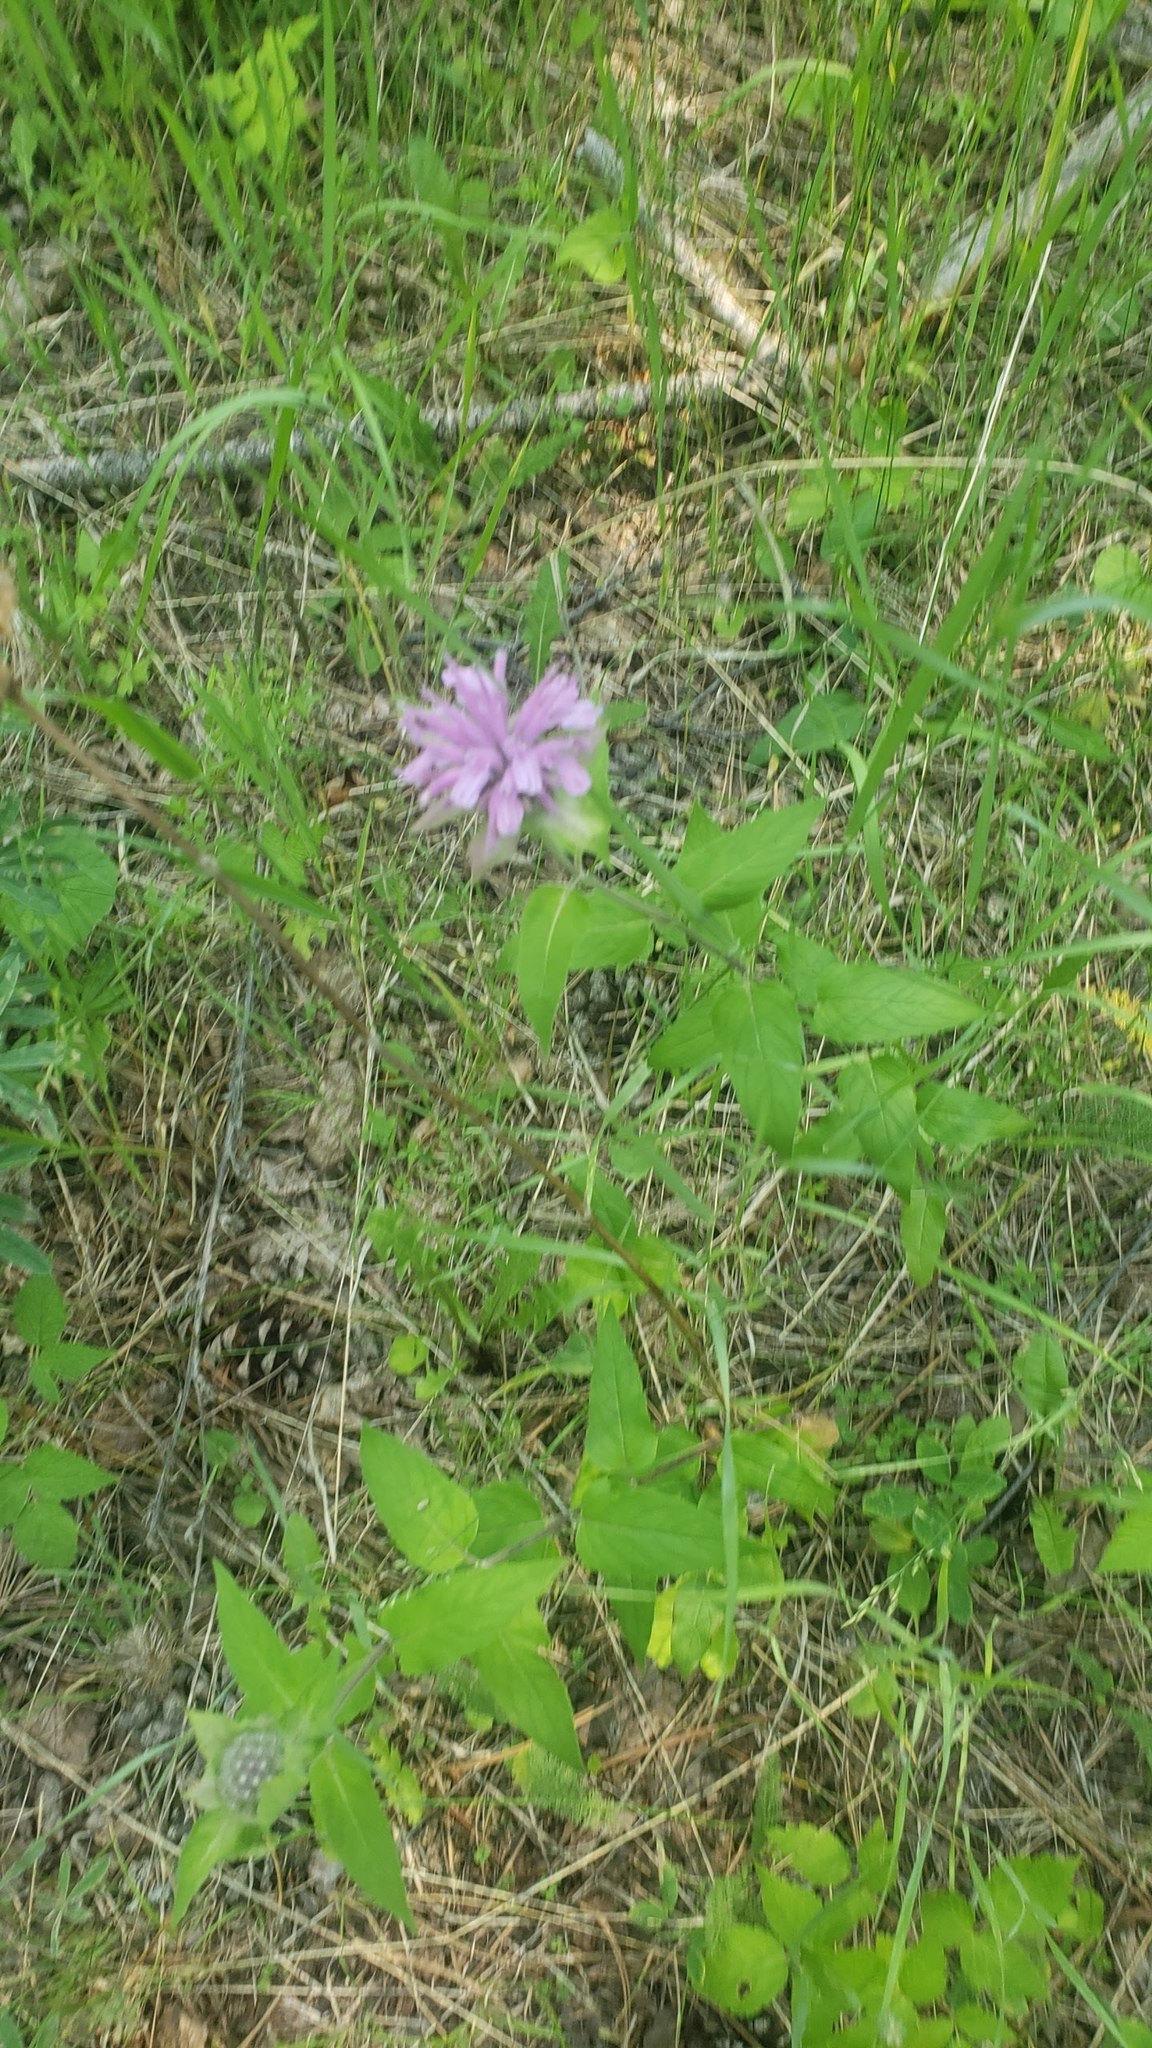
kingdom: Plantae
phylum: Tracheophyta
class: Magnoliopsida
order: Lamiales
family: Lamiaceae
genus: Monarda
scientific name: Monarda fistulosa
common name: Purple beebalm
